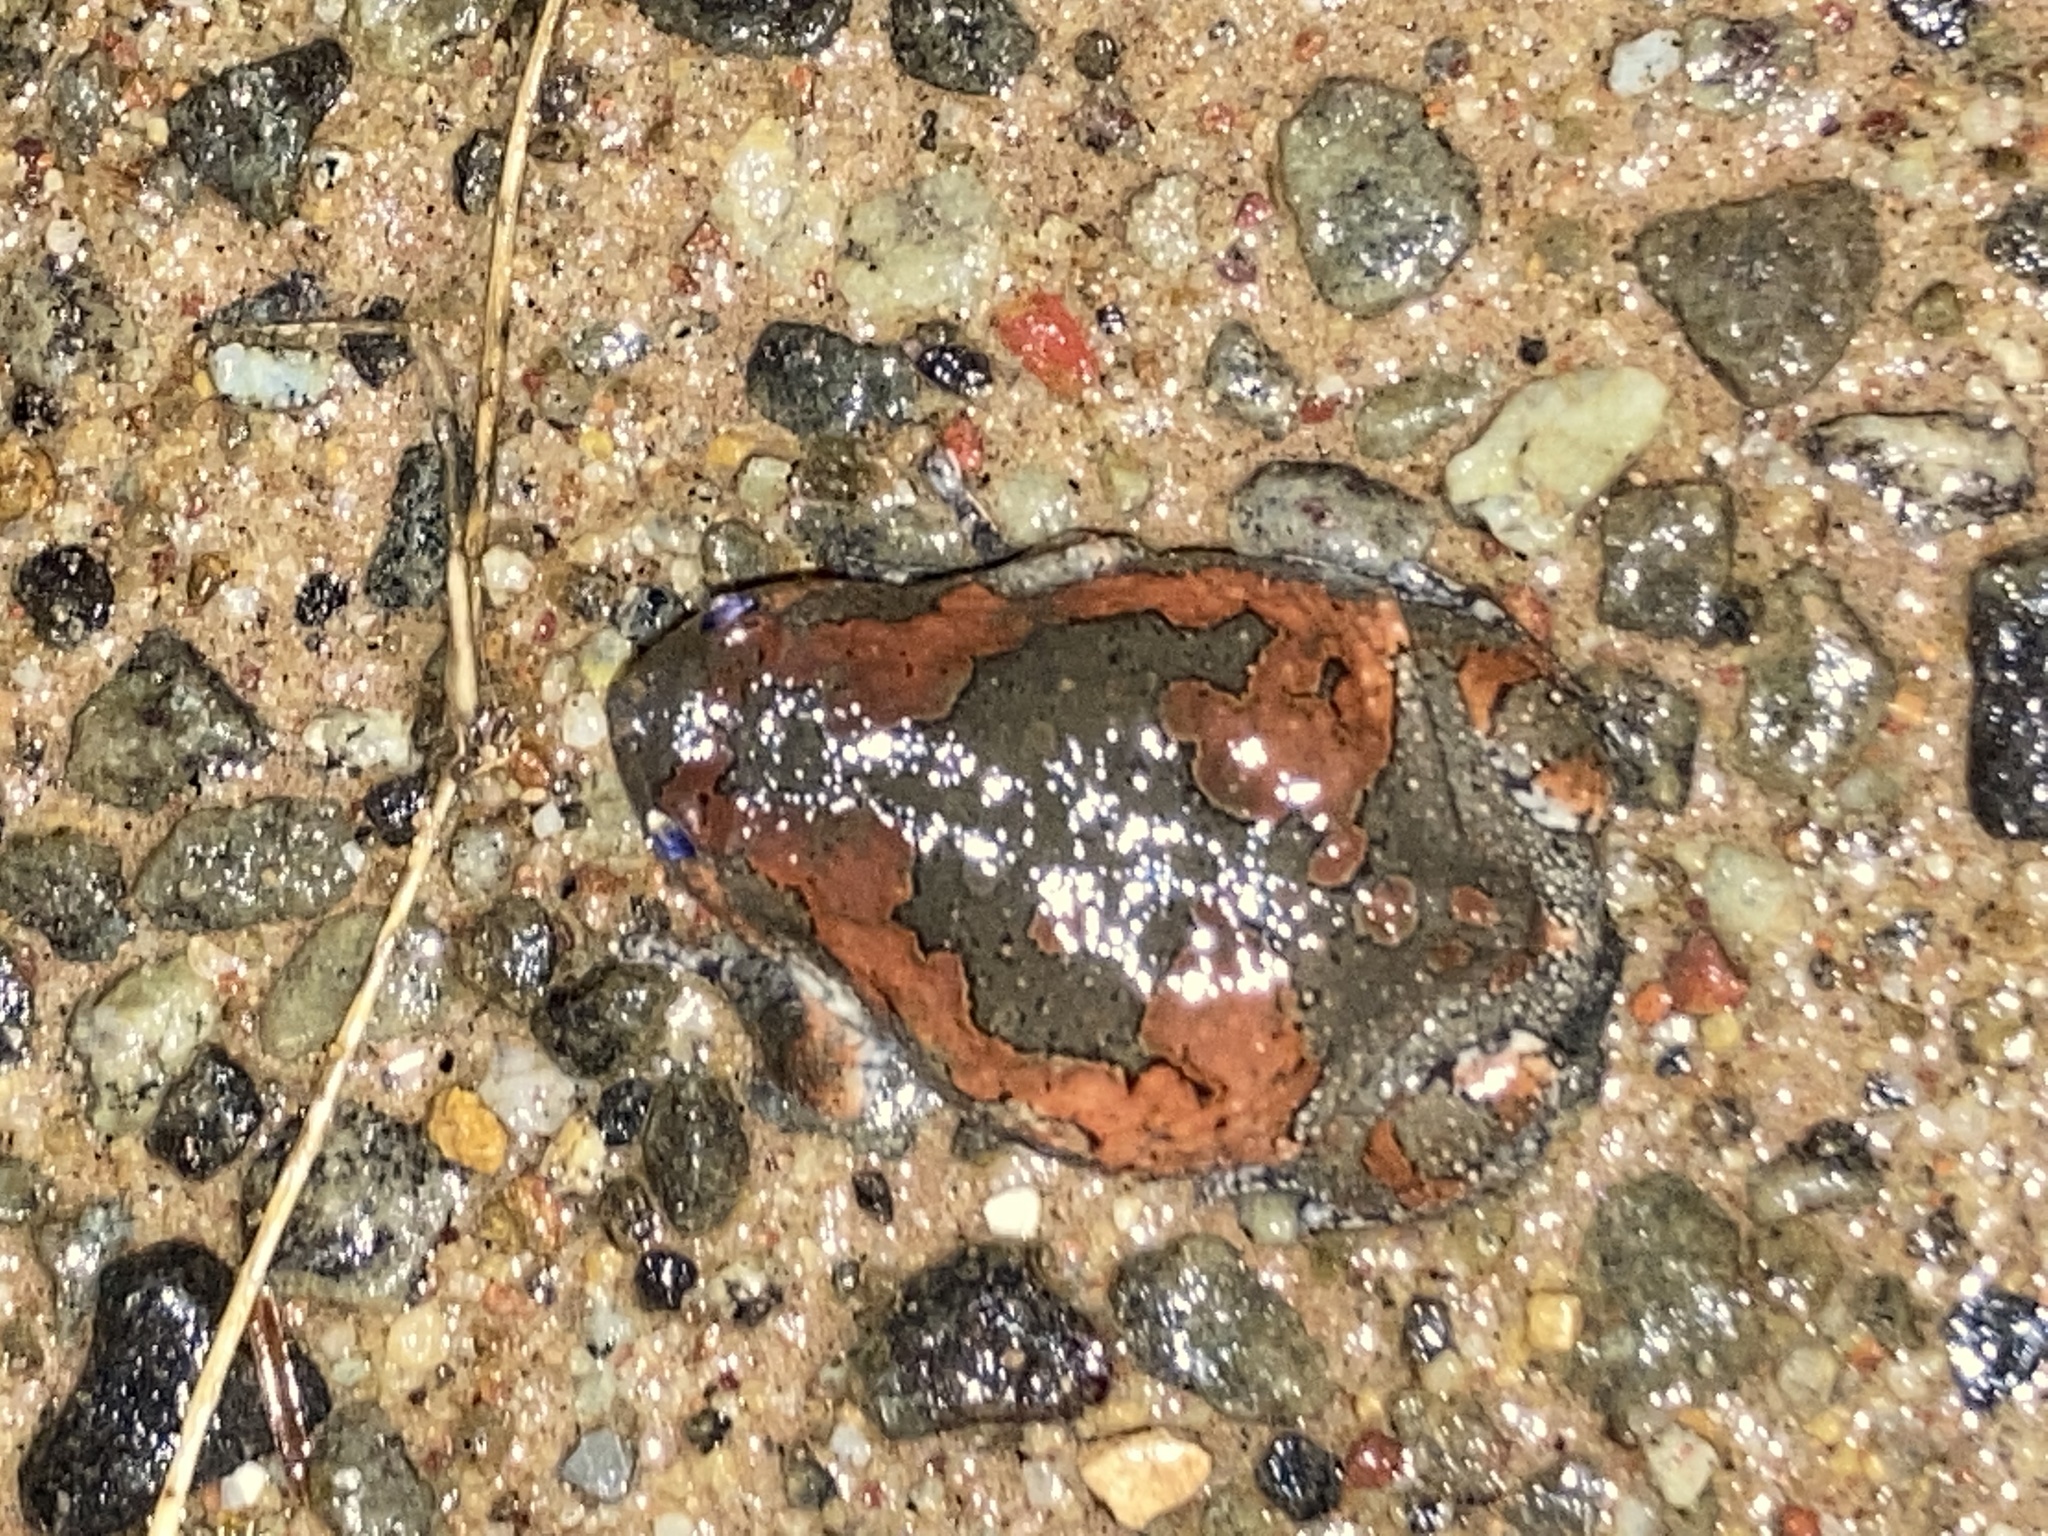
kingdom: Animalia
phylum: Chordata
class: Amphibia
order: Anura
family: Microhylidae
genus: Uperodon
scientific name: Uperodon taprobanicus
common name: Ceylon kaloula
